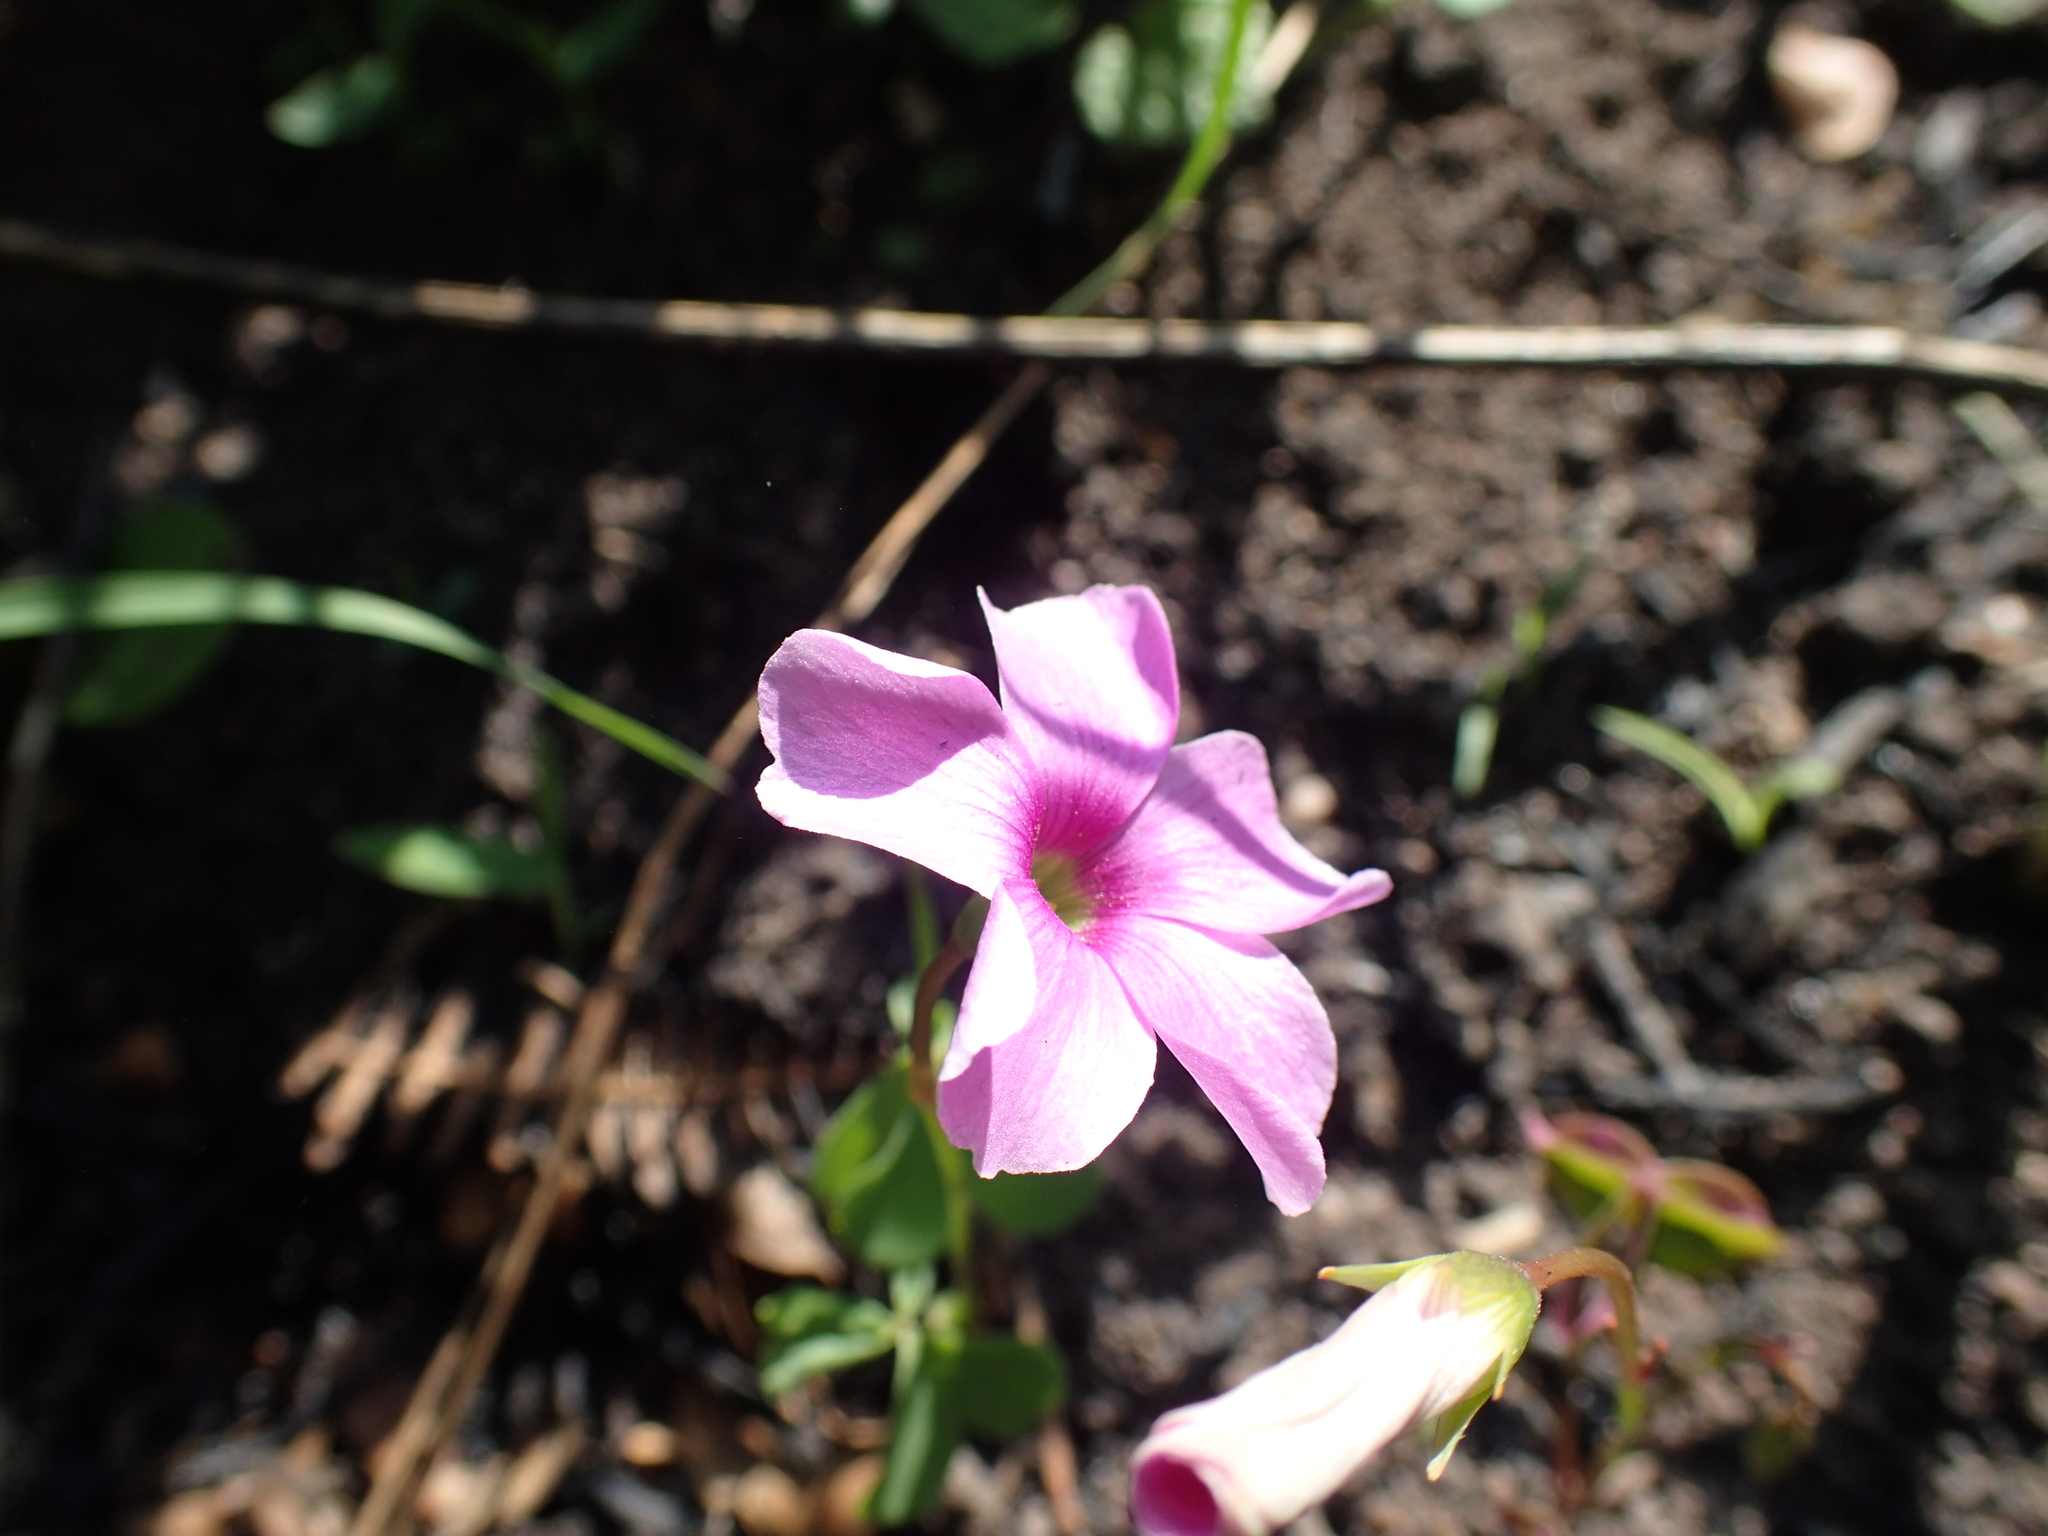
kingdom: Plantae
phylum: Tracheophyta
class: Magnoliopsida
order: Oxalidales
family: Oxalidaceae
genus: Oxalis
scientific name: Oxalis smithiana
